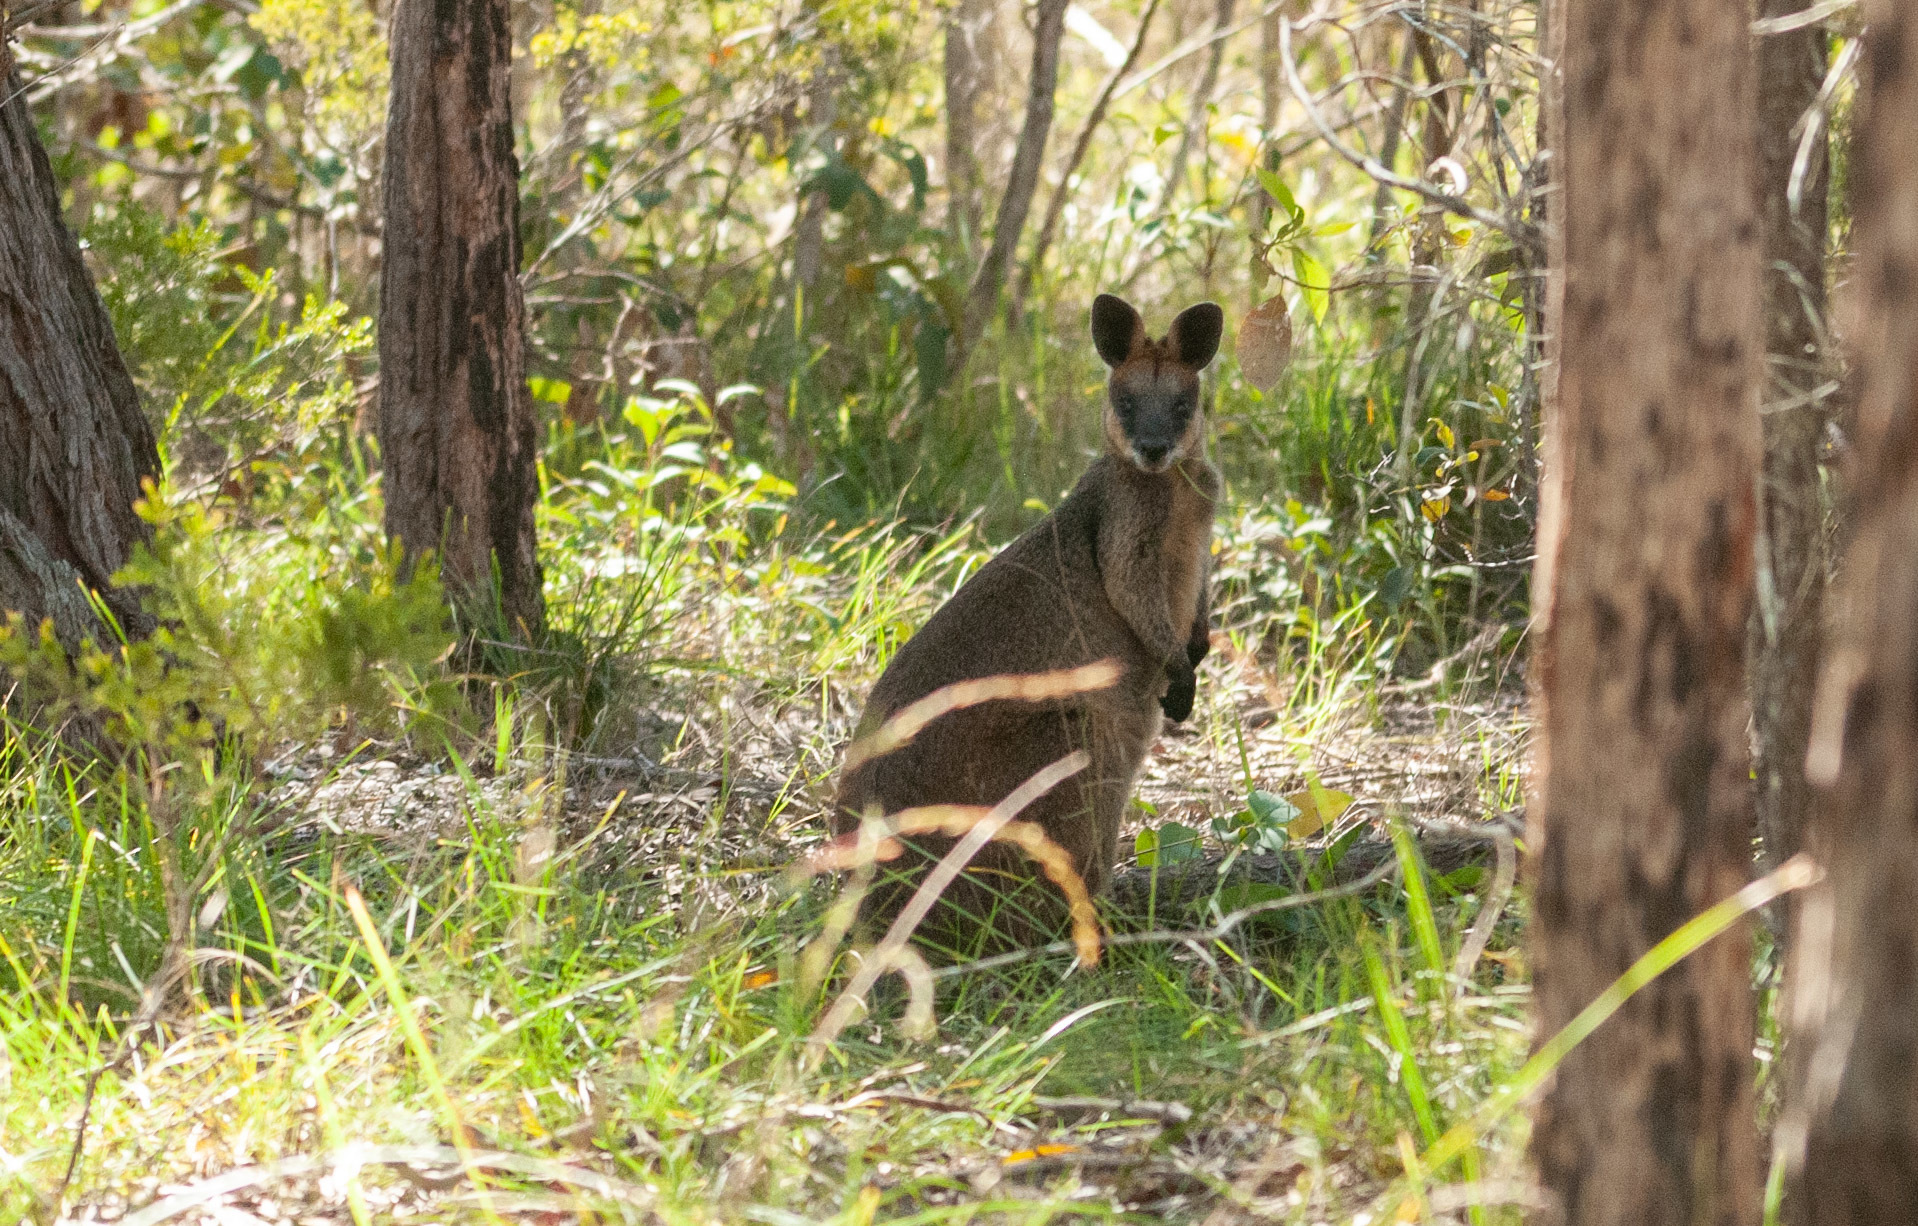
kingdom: Animalia
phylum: Chordata
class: Mammalia
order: Diprotodontia
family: Macropodidae
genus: Wallabia
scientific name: Wallabia bicolor
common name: Swamp wallaby
